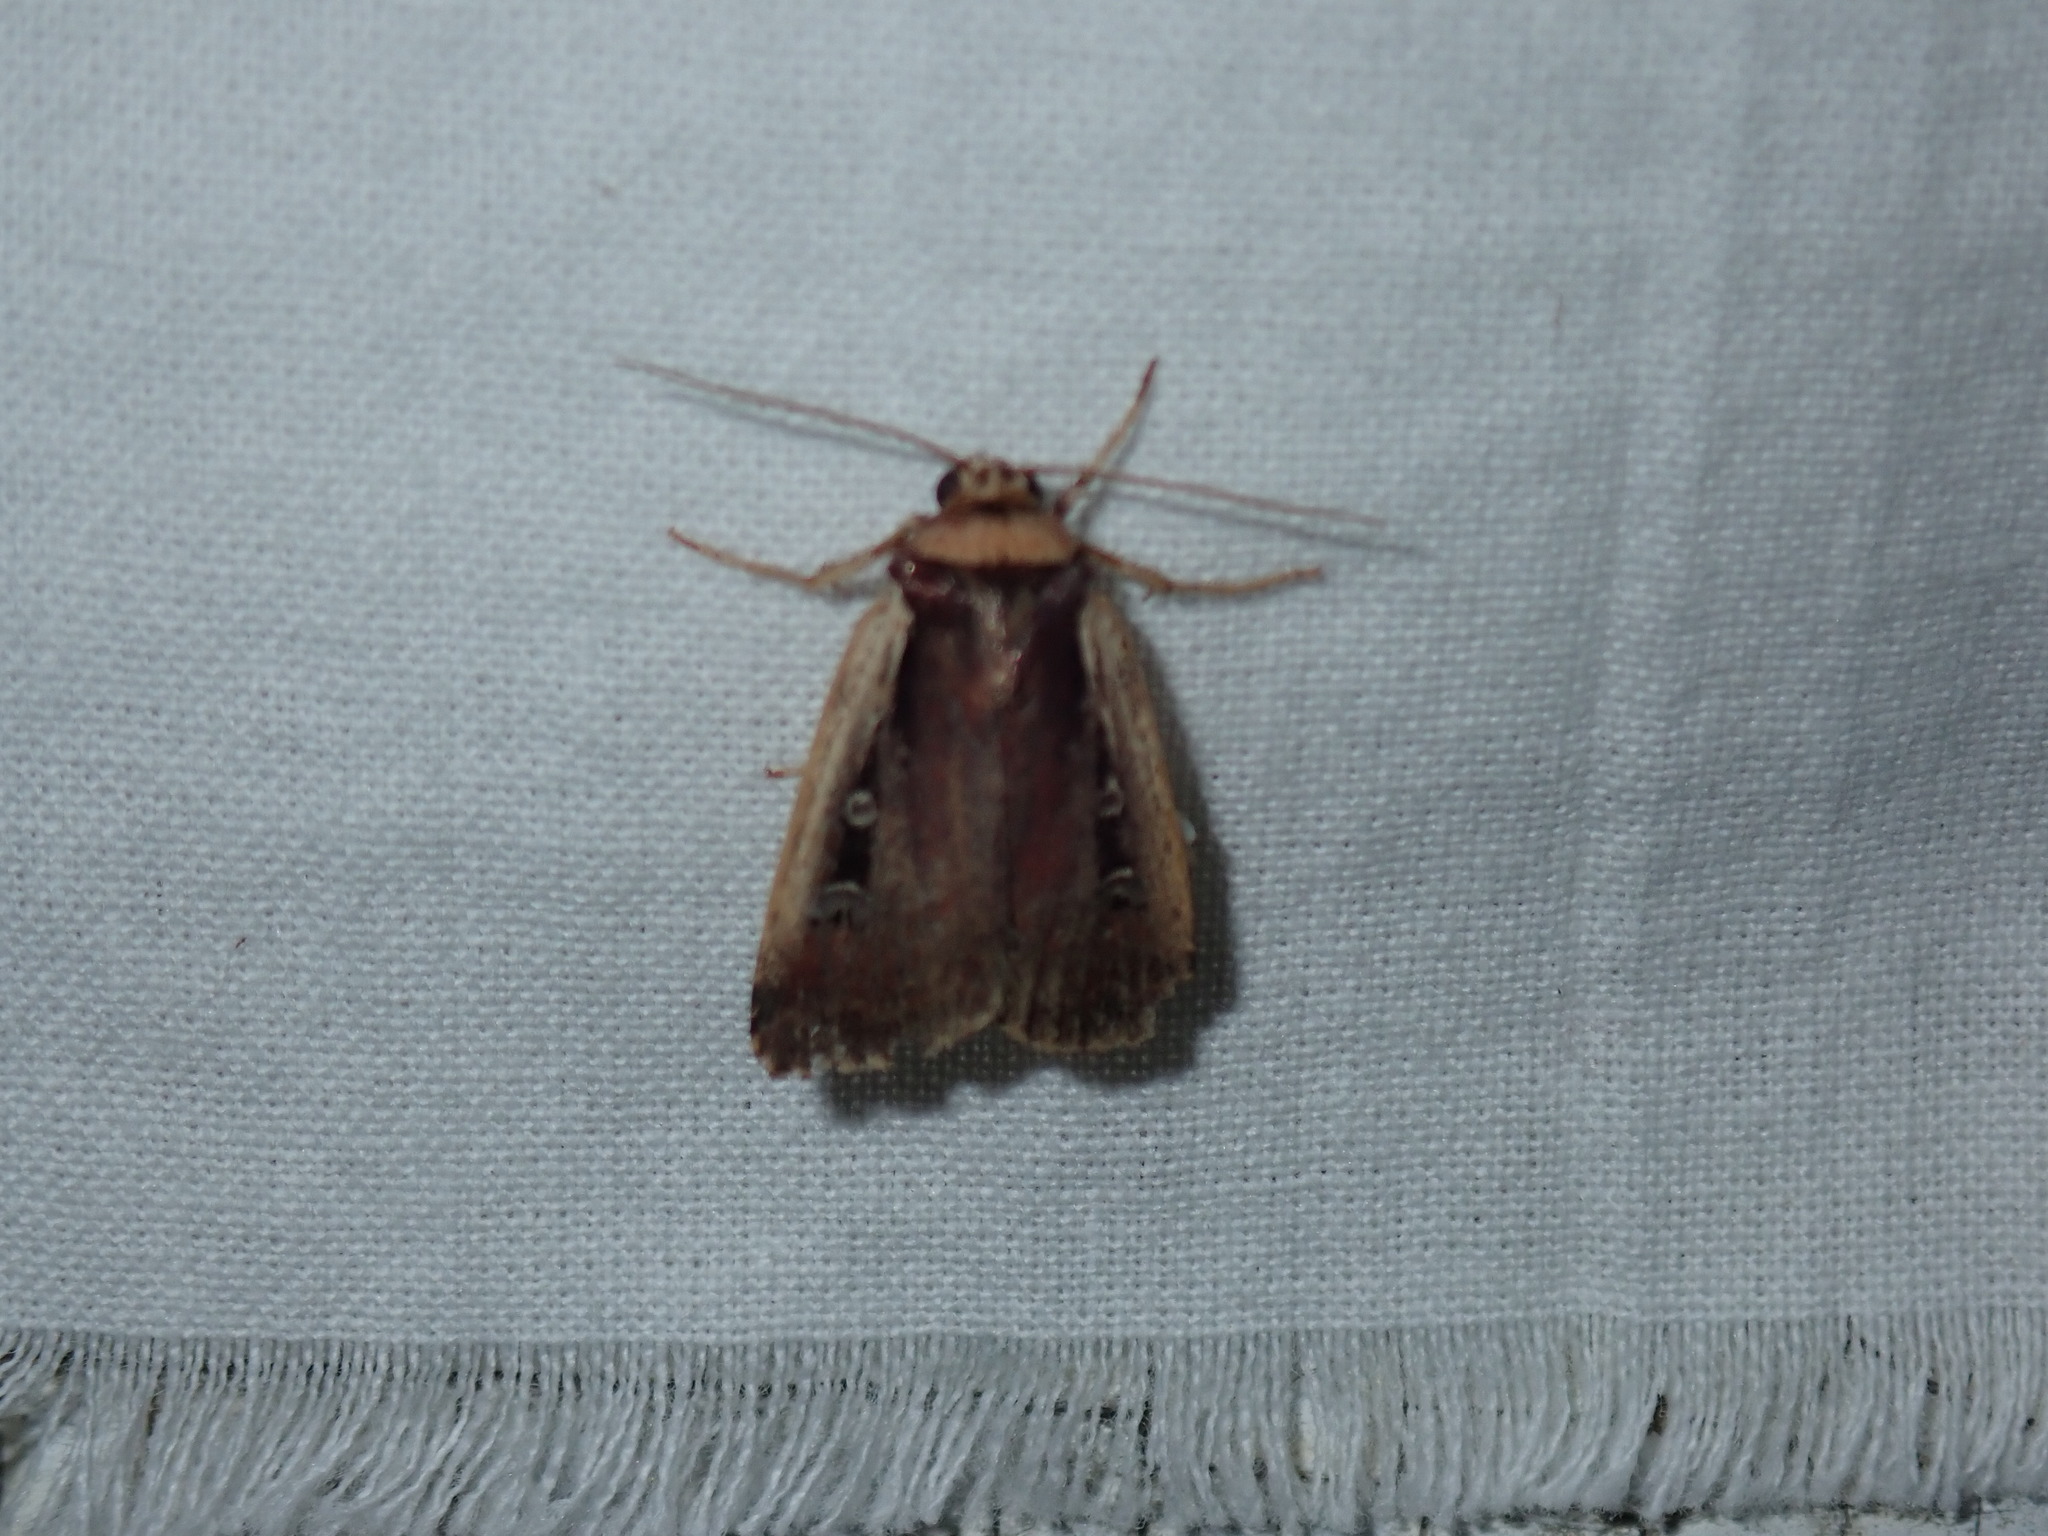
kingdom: Animalia
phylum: Arthropoda
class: Insecta
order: Lepidoptera
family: Noctuidae
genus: Ochropleura
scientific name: Ochropleura implecta
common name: Flame-shouldered dart
